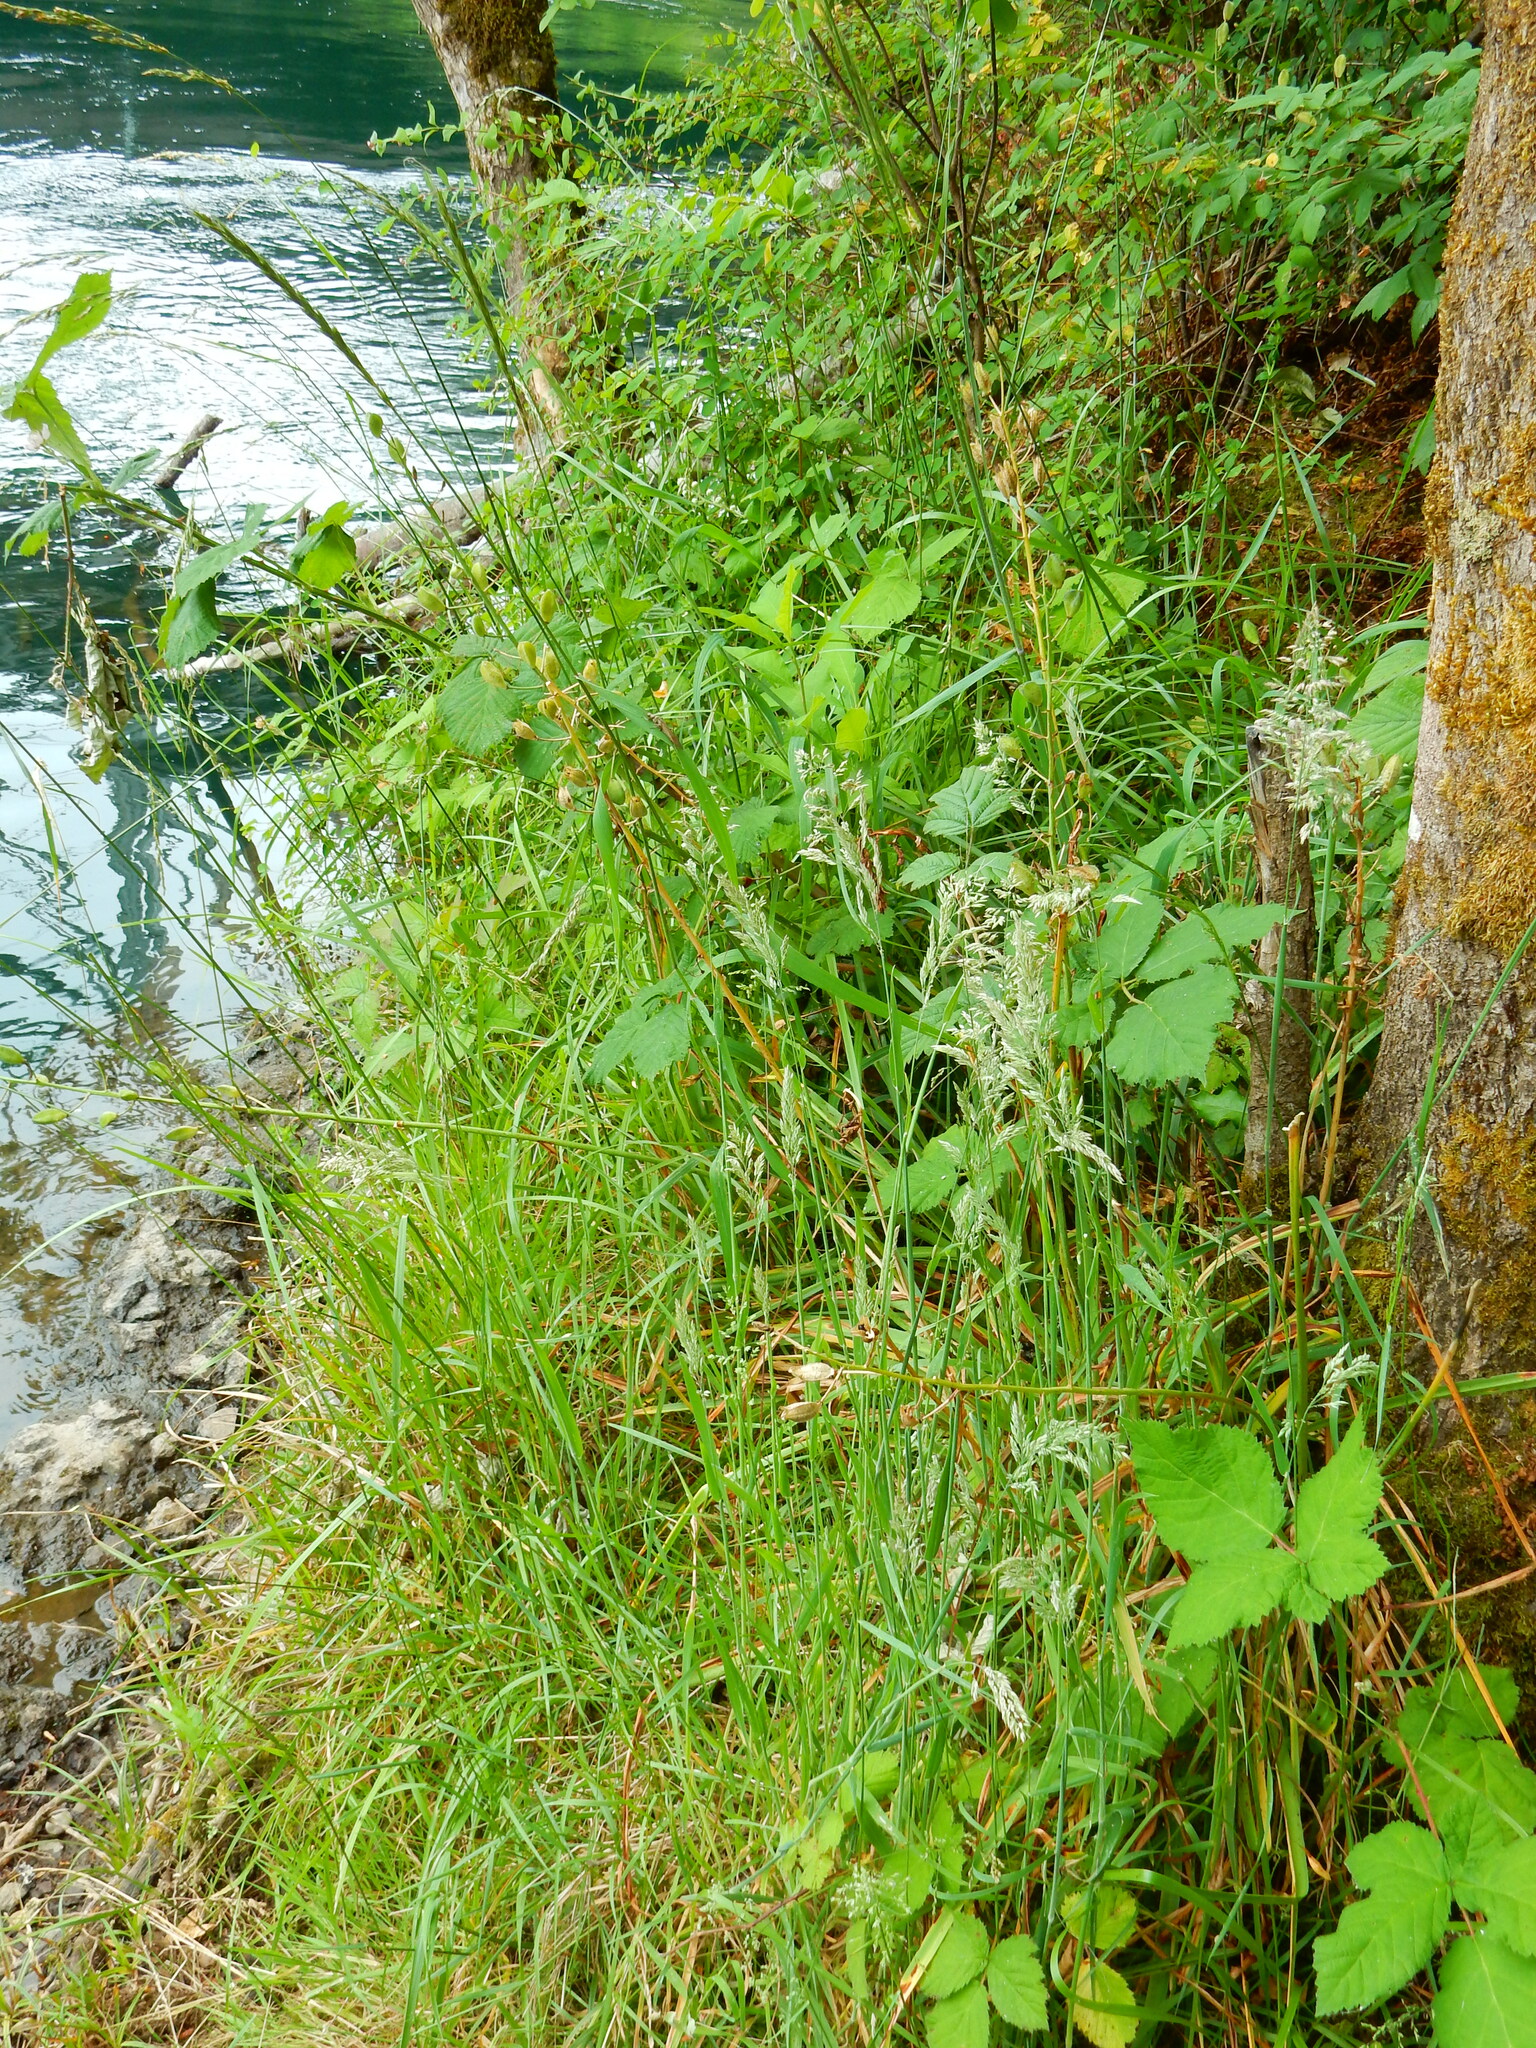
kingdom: Plantae
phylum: Tracheophyta
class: Liliopsida
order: Asparagales
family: Asparagaceae
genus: Camassia
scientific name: Camassia leichtlinii
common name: Leichtlin's camas
